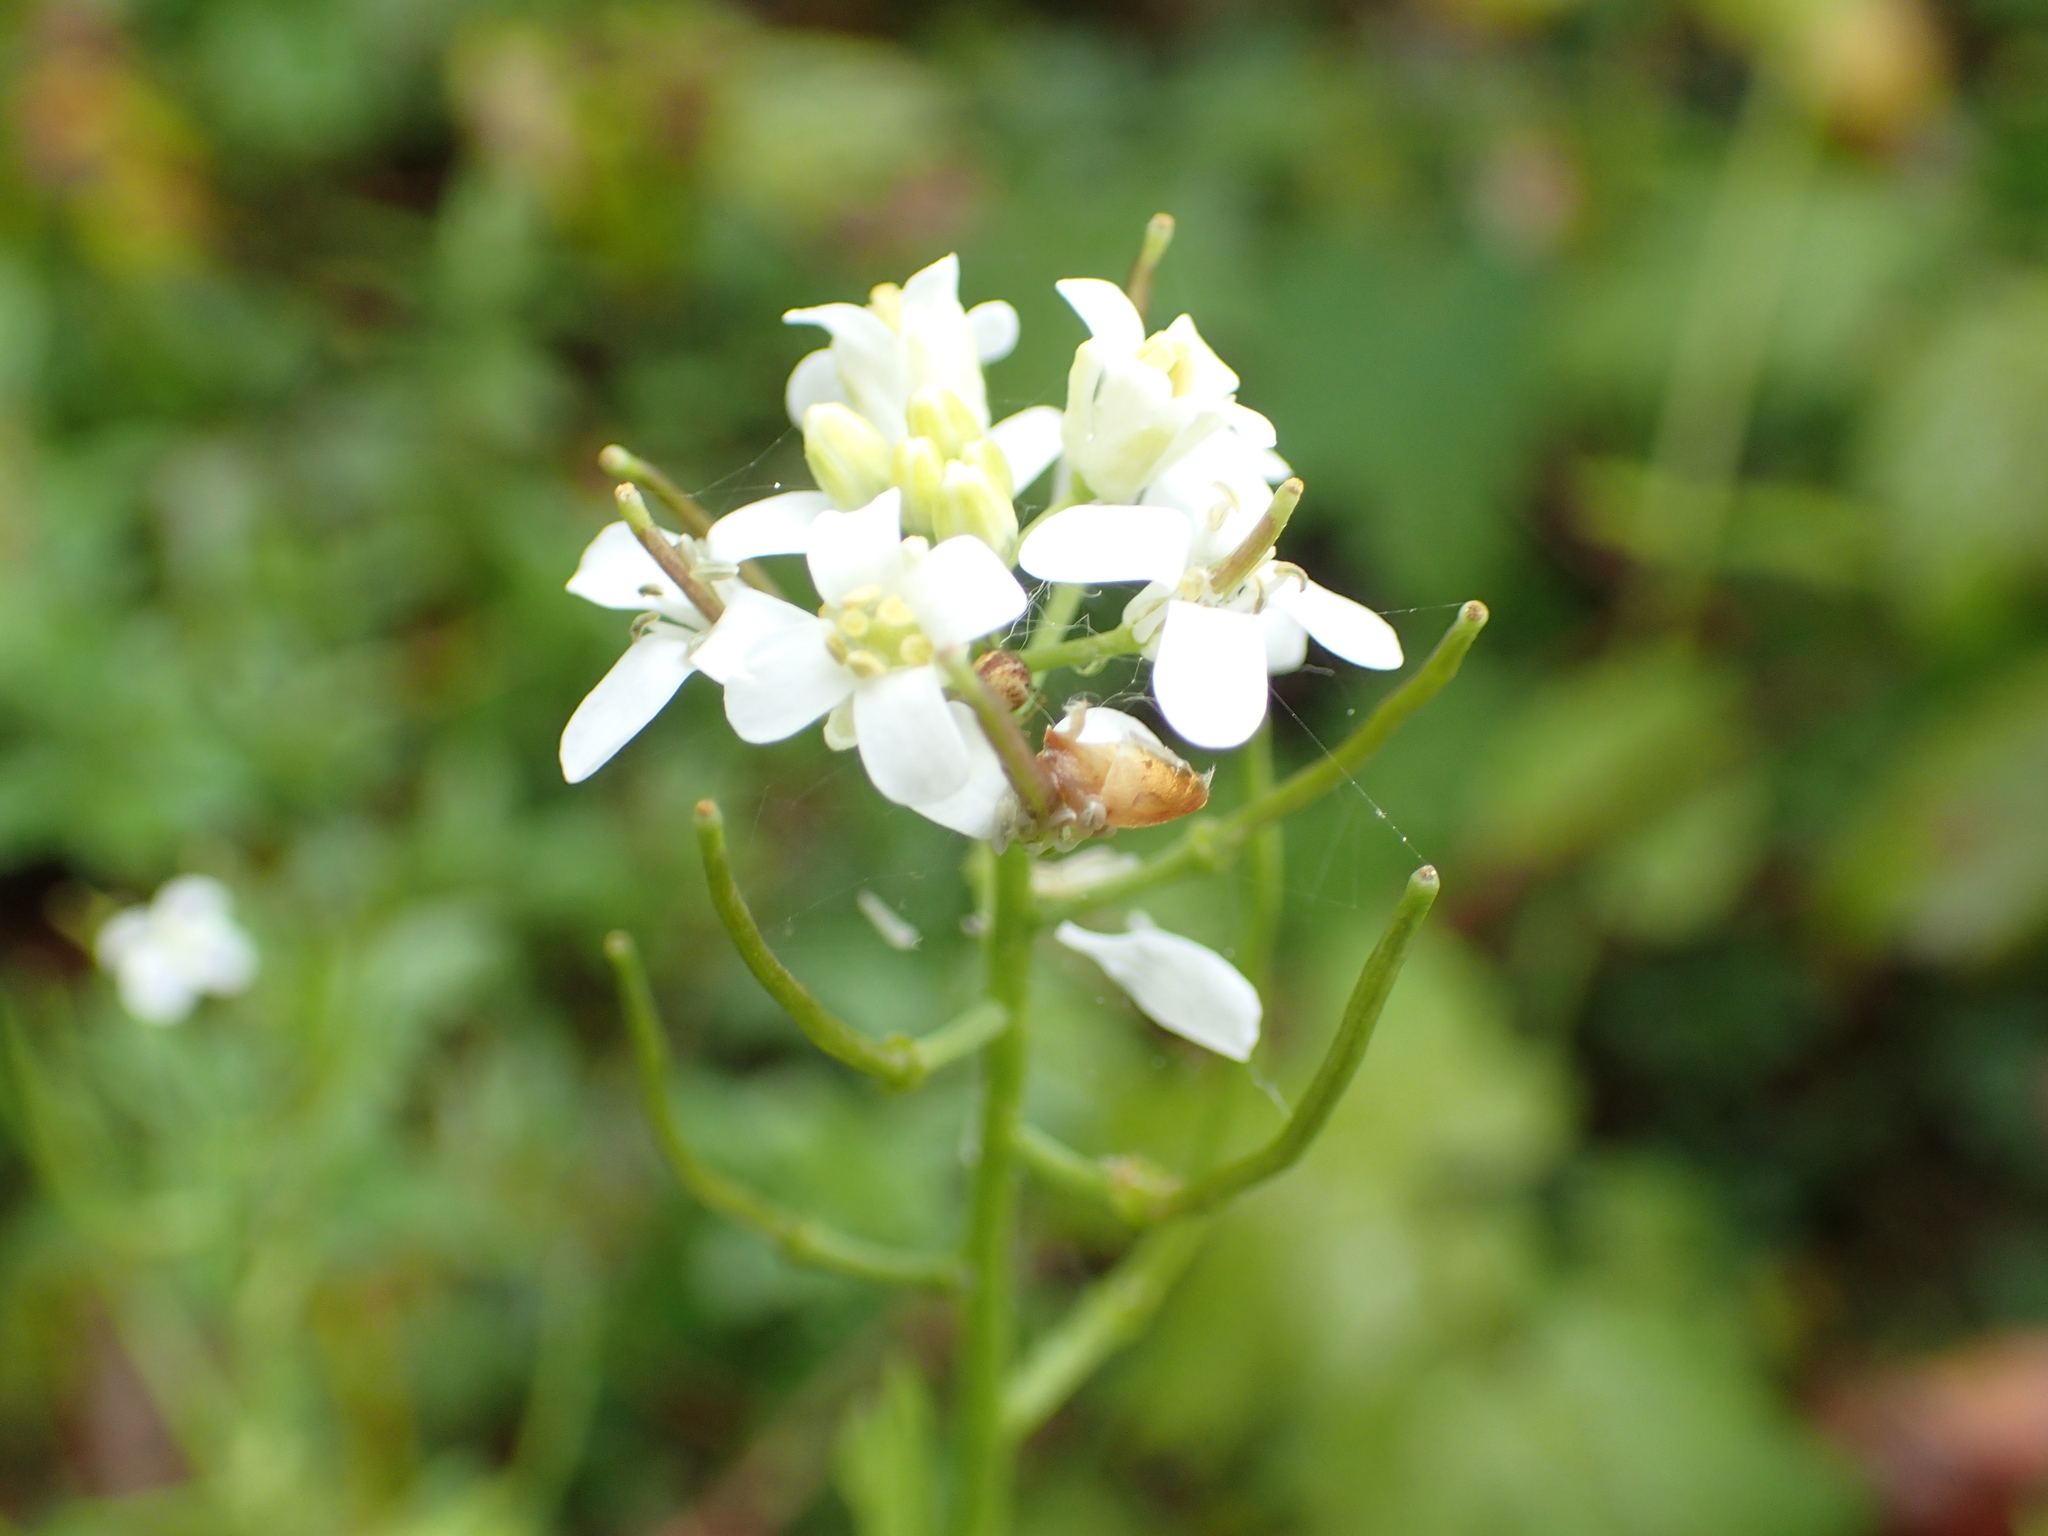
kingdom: Plantae
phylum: Tracheophyta
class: Magnoliopsida
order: Brassicales
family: Brassicaceae
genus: Alliaria
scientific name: Alliaria petiolata
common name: Garlic mustard
